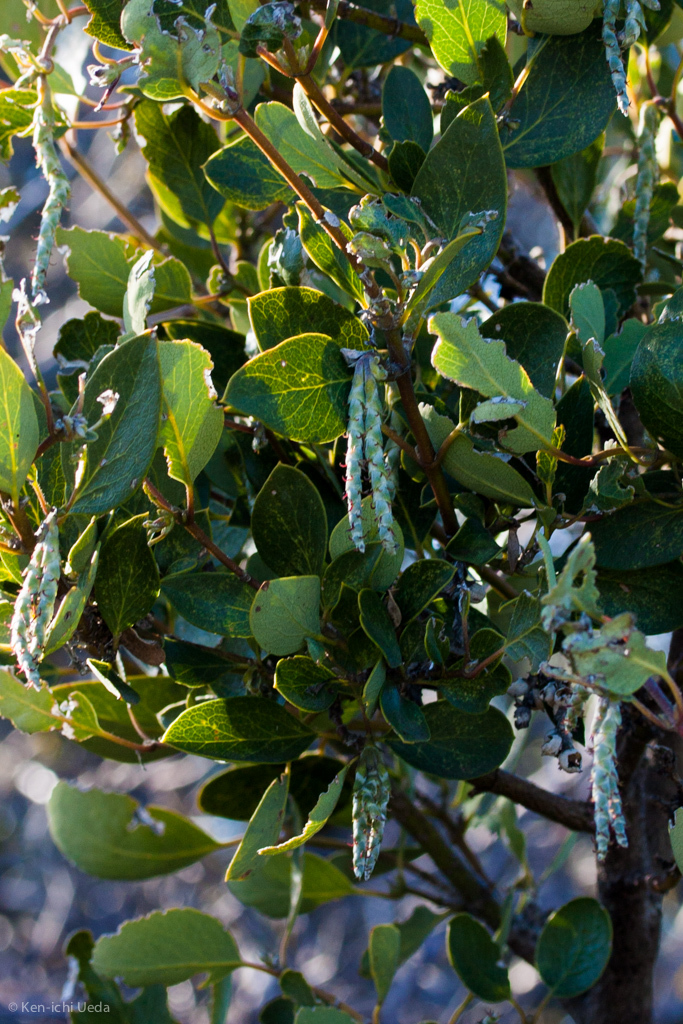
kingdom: Plantae
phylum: Tracheophyta
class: Magnoliopsida
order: Garryales
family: Garryaceae
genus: Garrya
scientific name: Garrya flavescens
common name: Ashy silk-tassel
